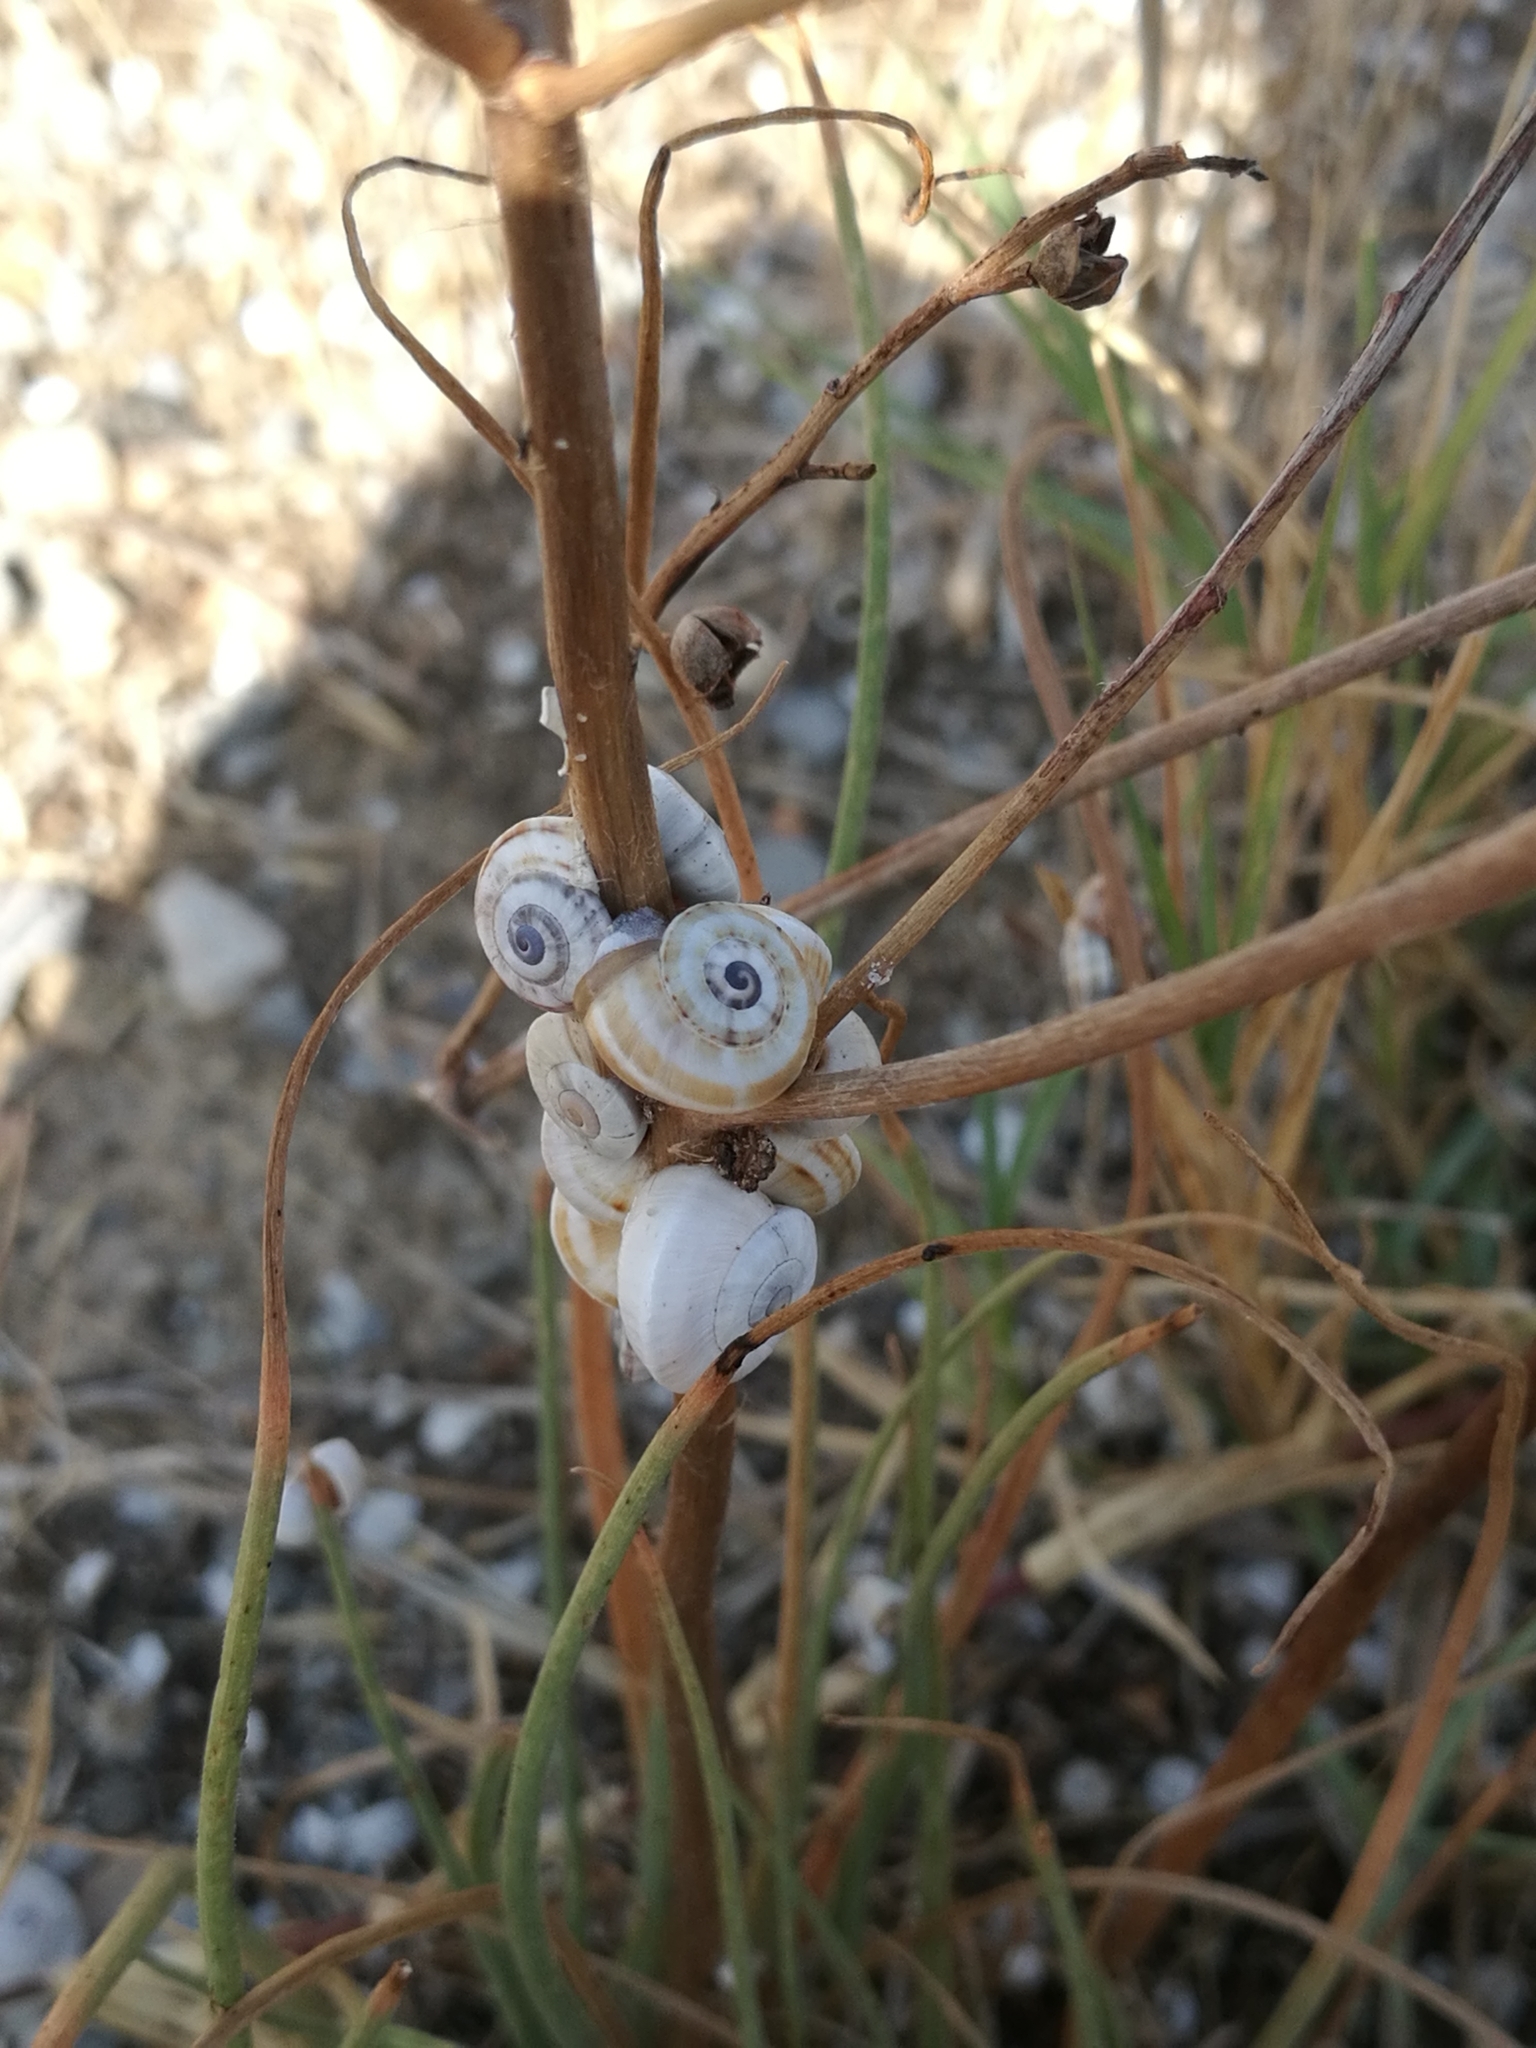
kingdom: Animalia
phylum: Mollusca
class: Gastropoda
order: Stylommatophora
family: Helicidae
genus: Theba
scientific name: Theba pisana
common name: White snail
